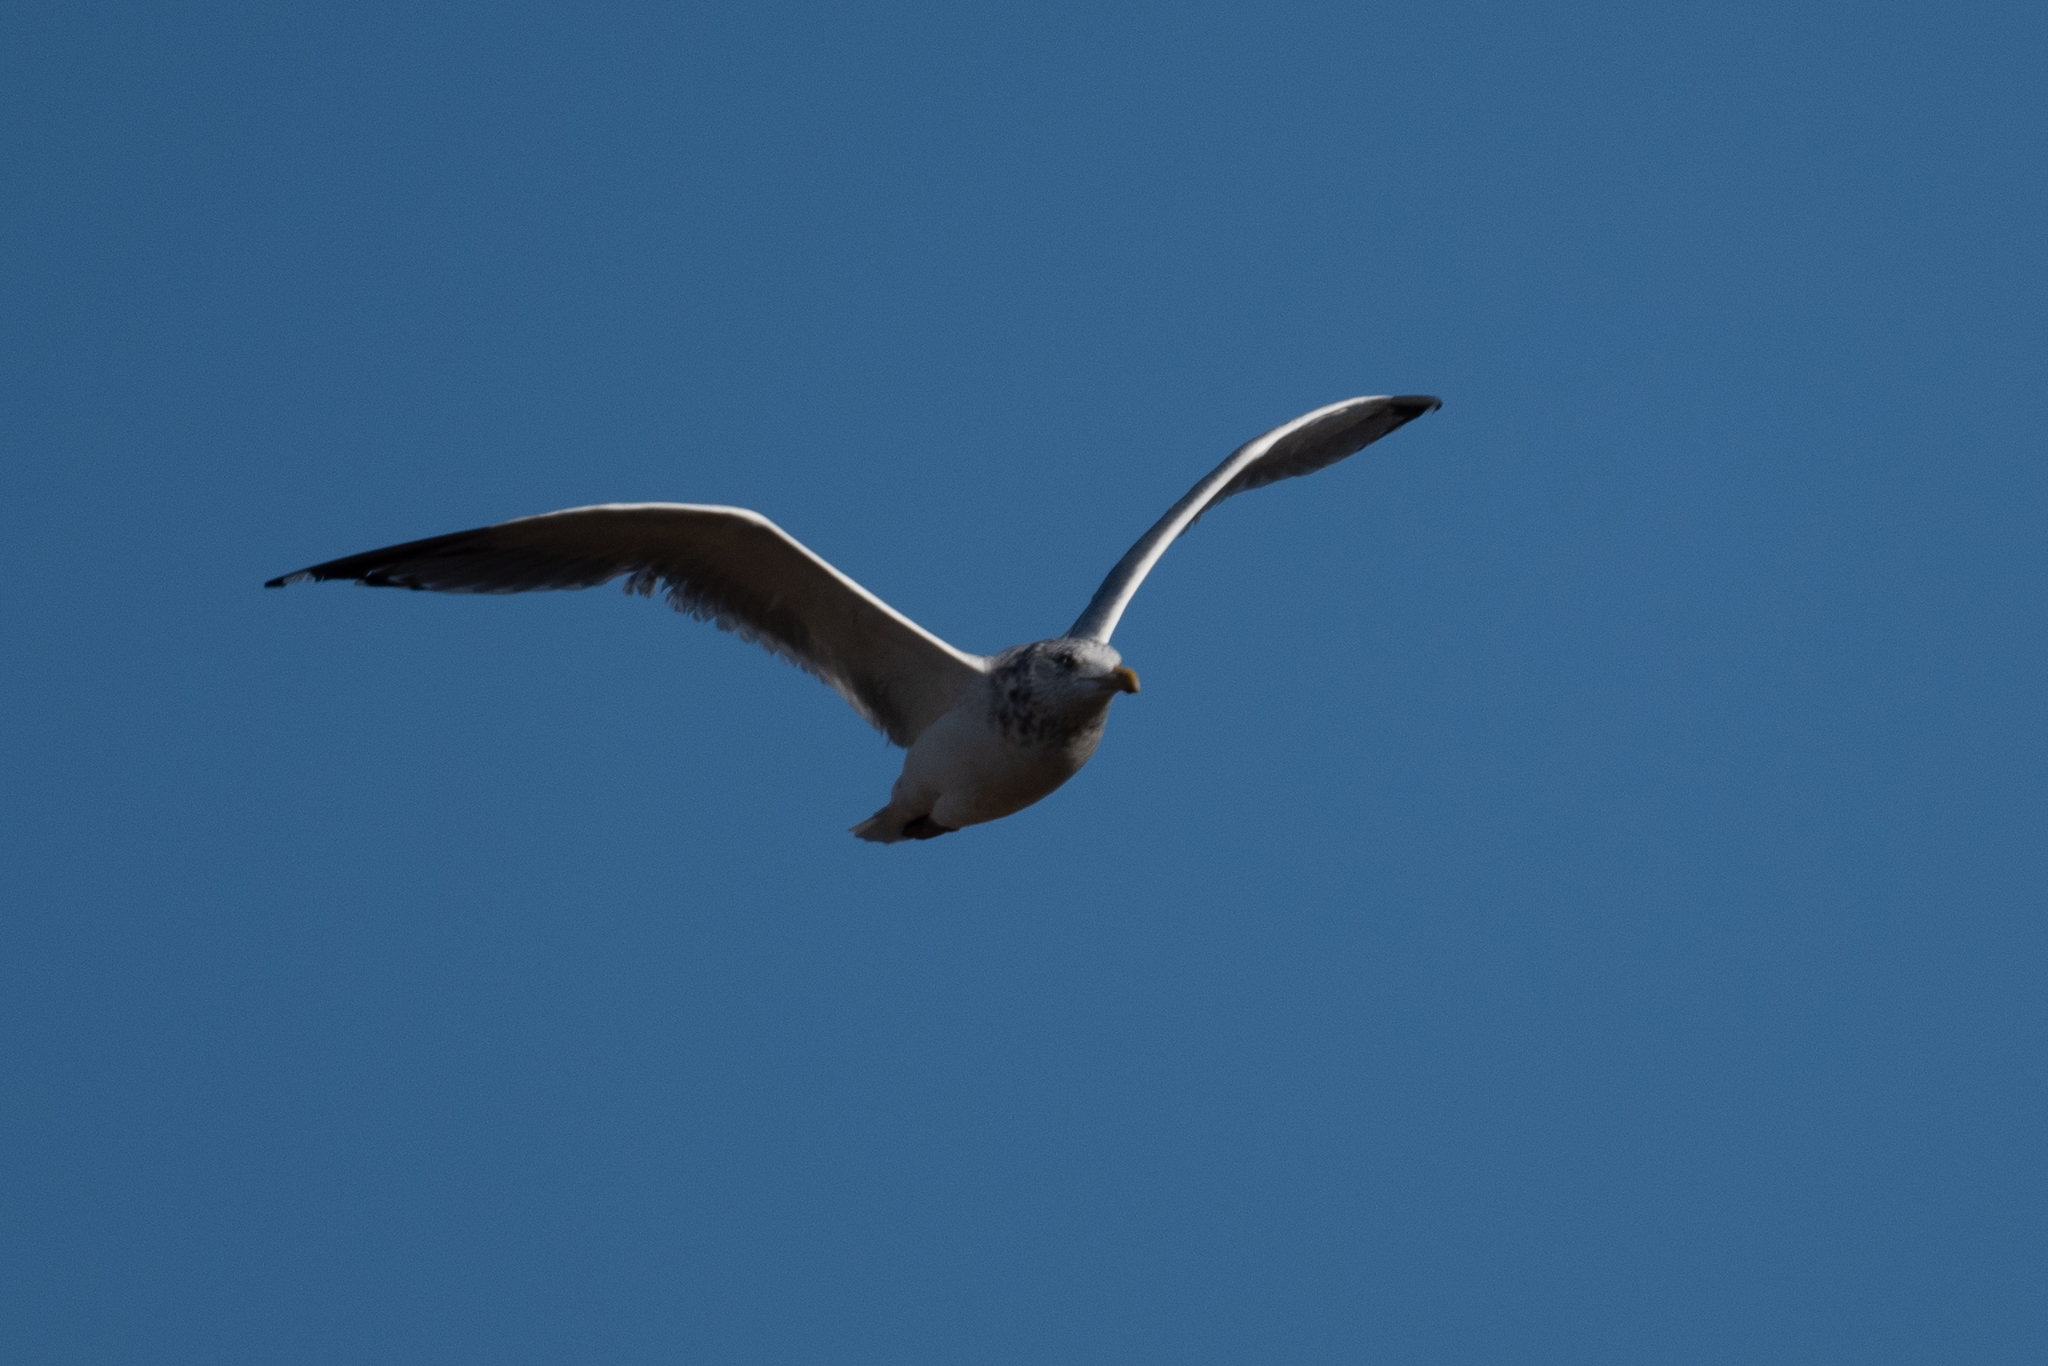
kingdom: Animalia
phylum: Chordata
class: Aves
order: Charadriiformes
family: Laridae
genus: Larus
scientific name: Larus argentatus
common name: Herring gull
